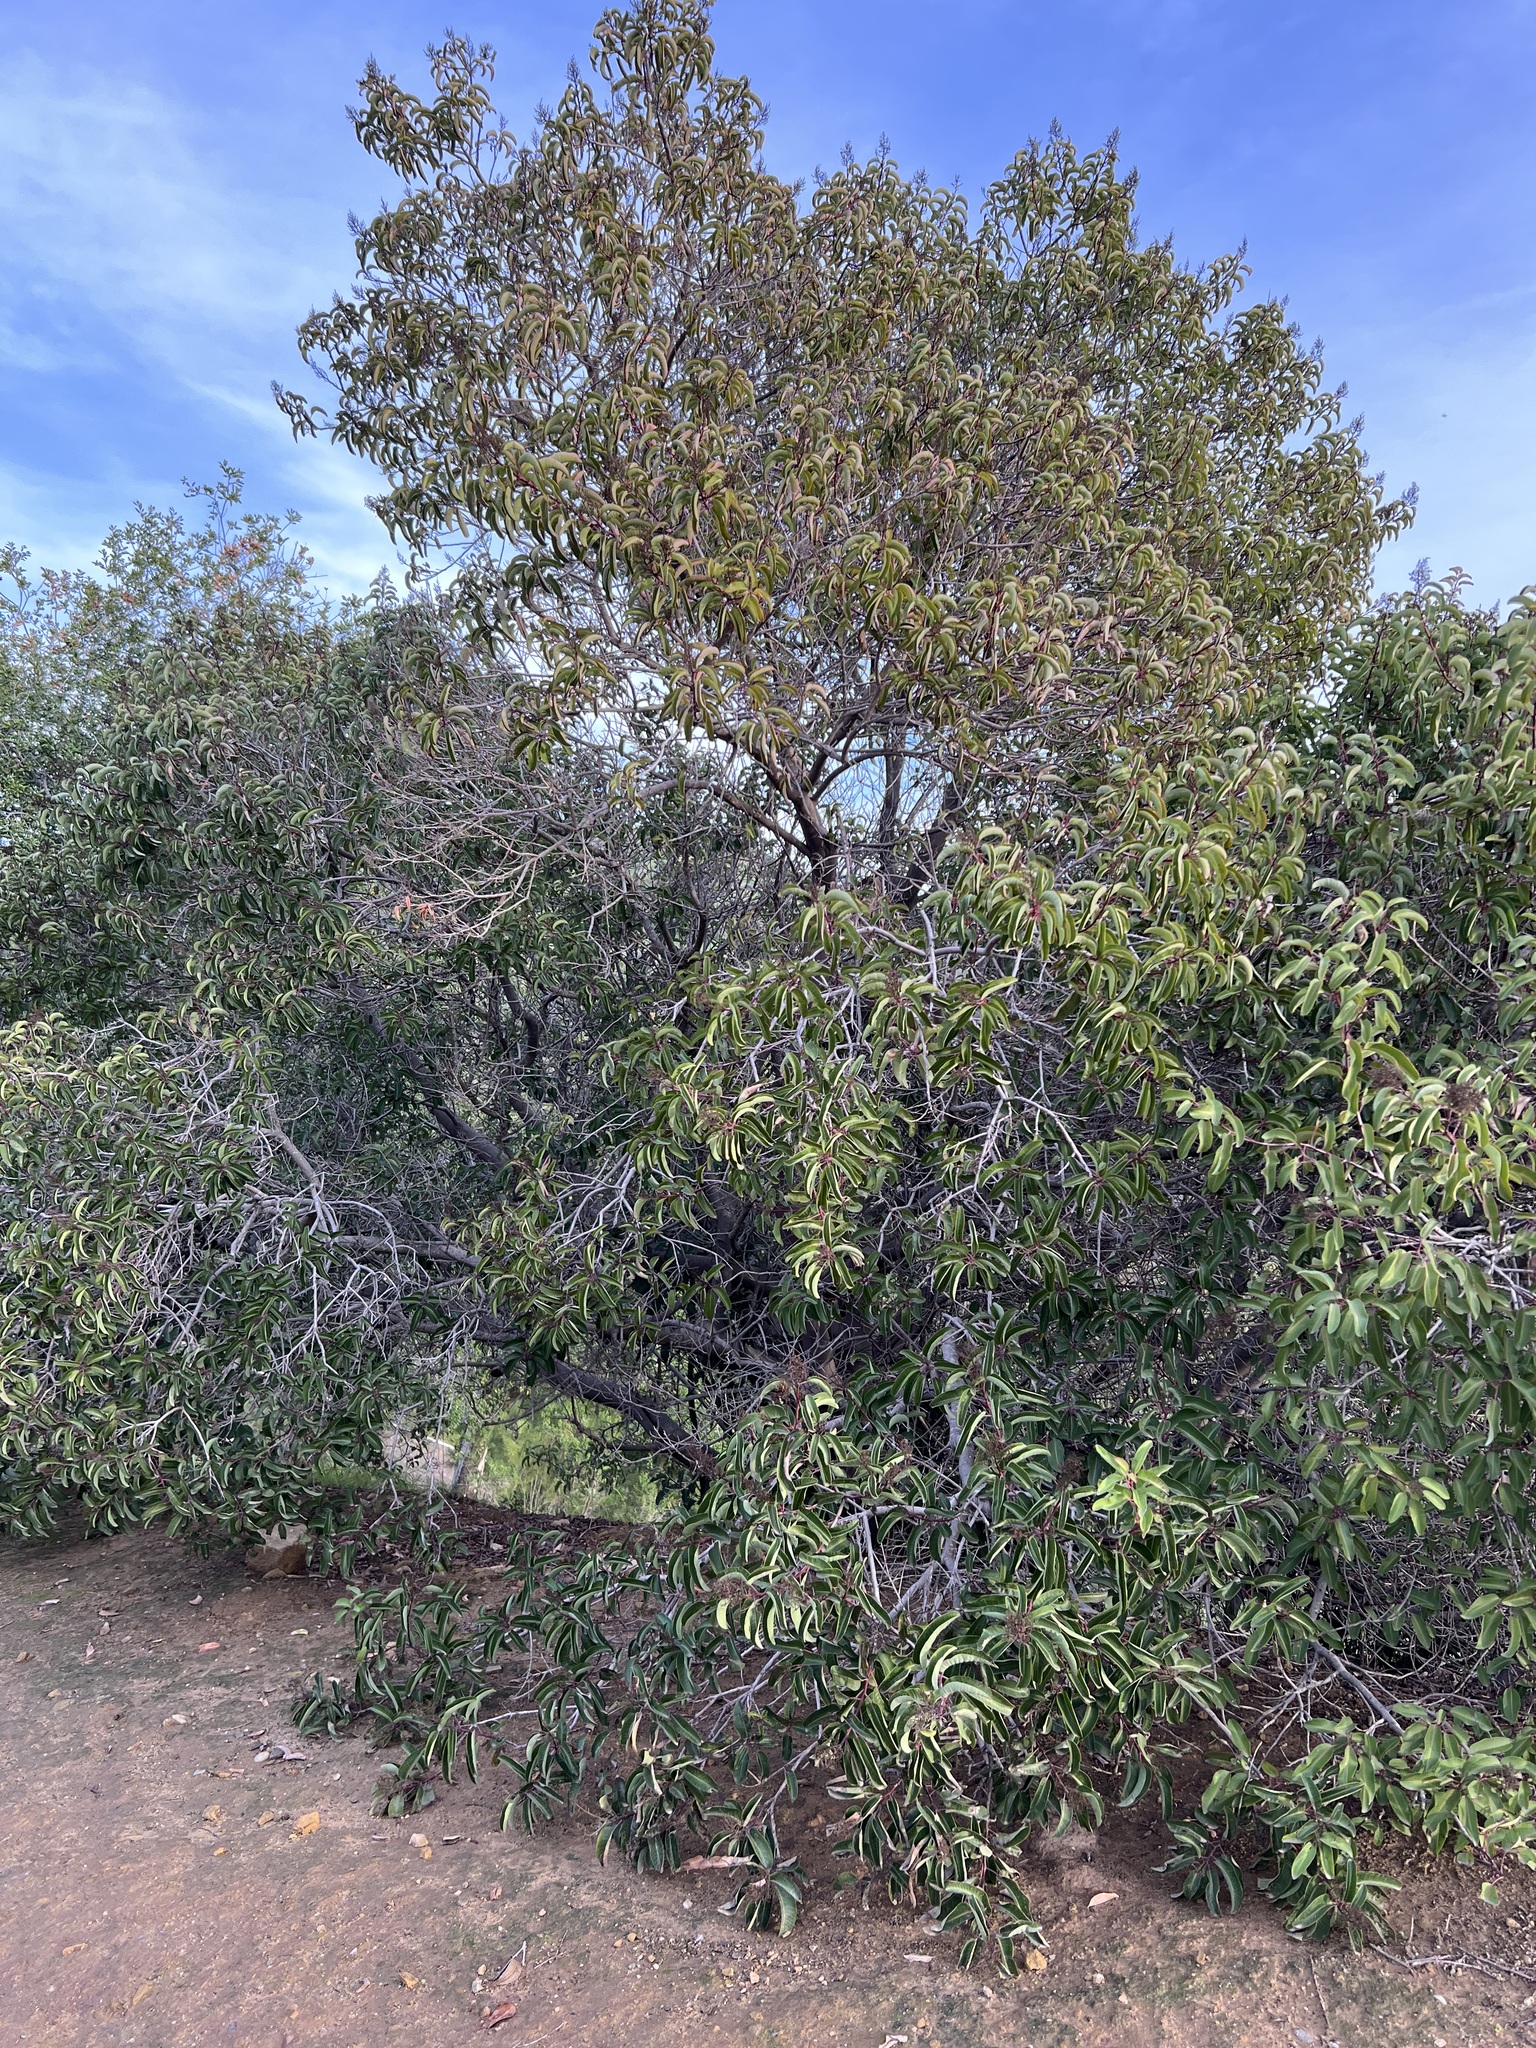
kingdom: Plantae
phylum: Tracheophyta
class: Magnoliopsida
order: Sapindales
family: Anacardiaceae
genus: Malosma
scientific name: Malosma laurina
